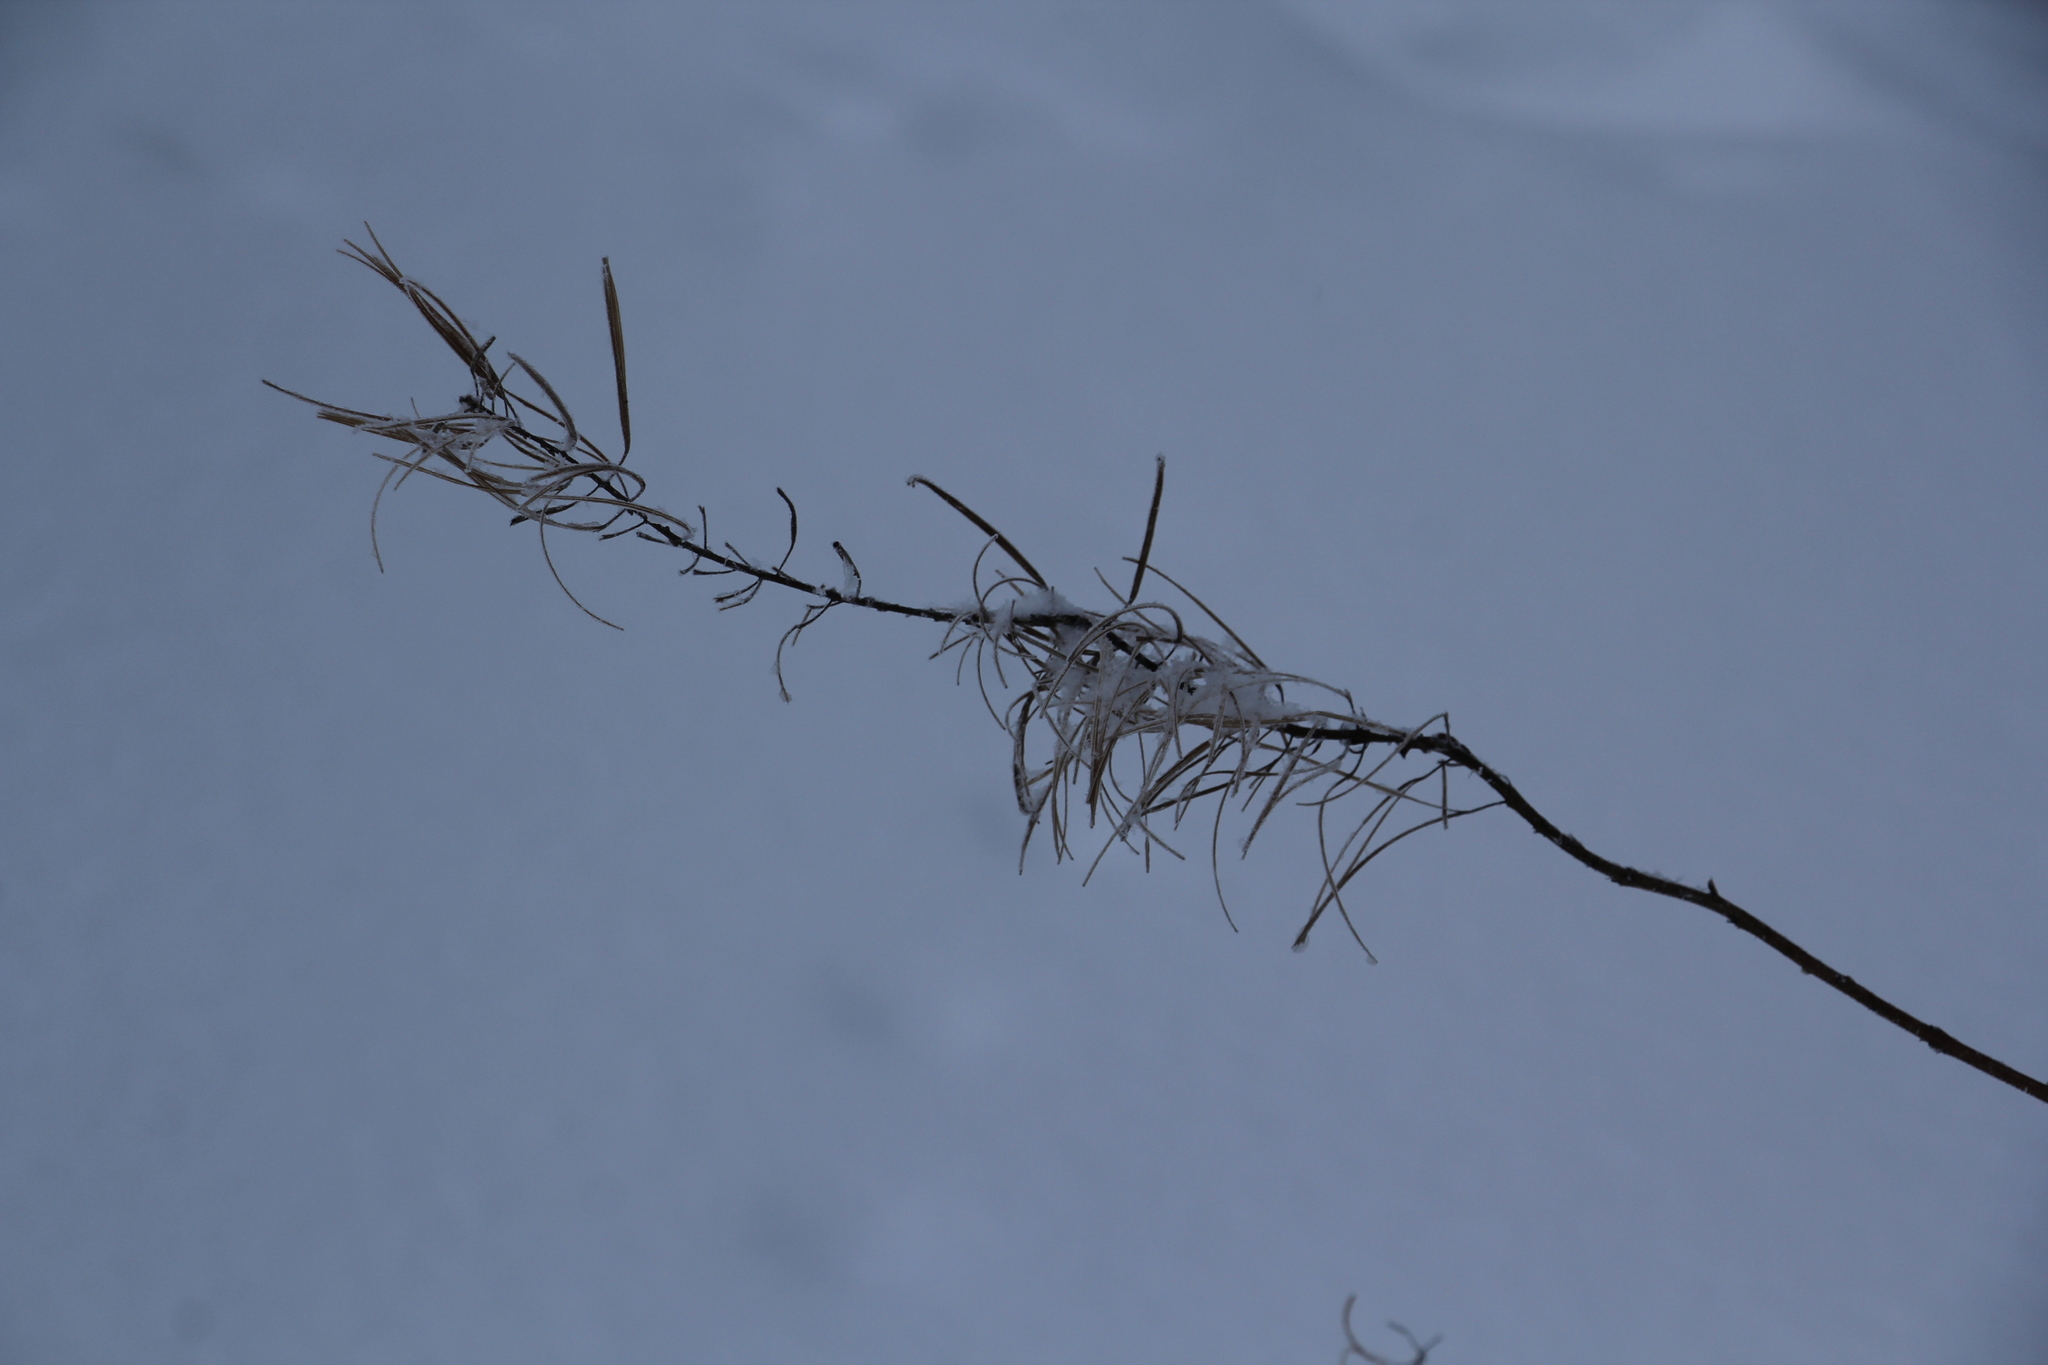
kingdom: Plantae
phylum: Tracheophyta
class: Magnoliopsida
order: Myrtales
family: Onagraceae
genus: Chamaenerion
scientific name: Chamaenerion angustifolium
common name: Fireweed
